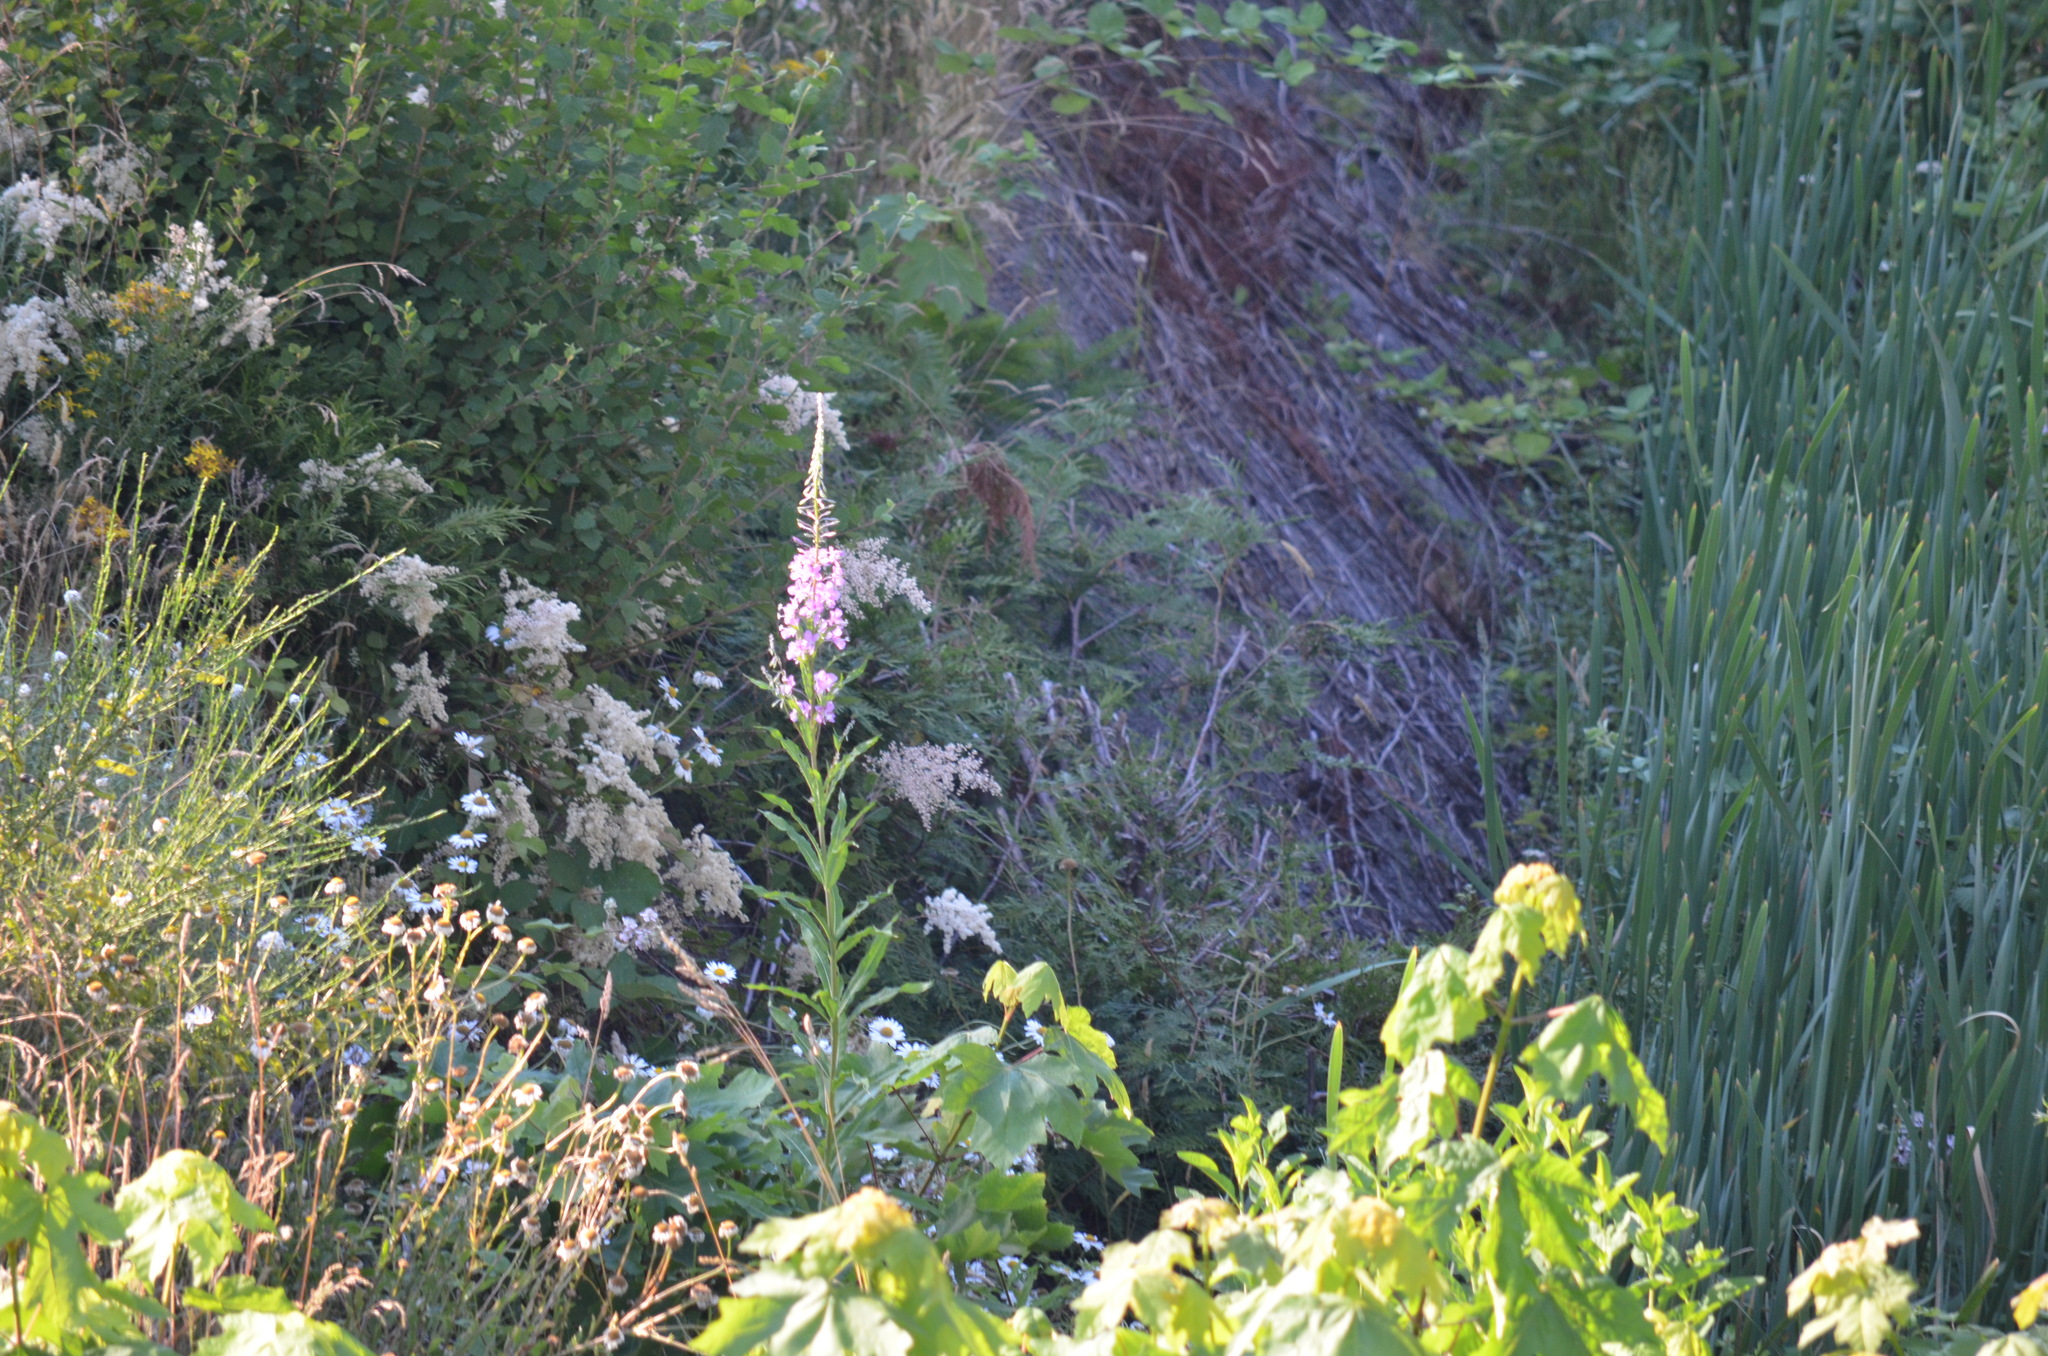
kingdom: Plantae
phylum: Tracheophyta
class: Magnoliopsida
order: Myrtales
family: Onagraceae
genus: Chamaenerion
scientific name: Chamaenerion angustifolium
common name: Fireweed
